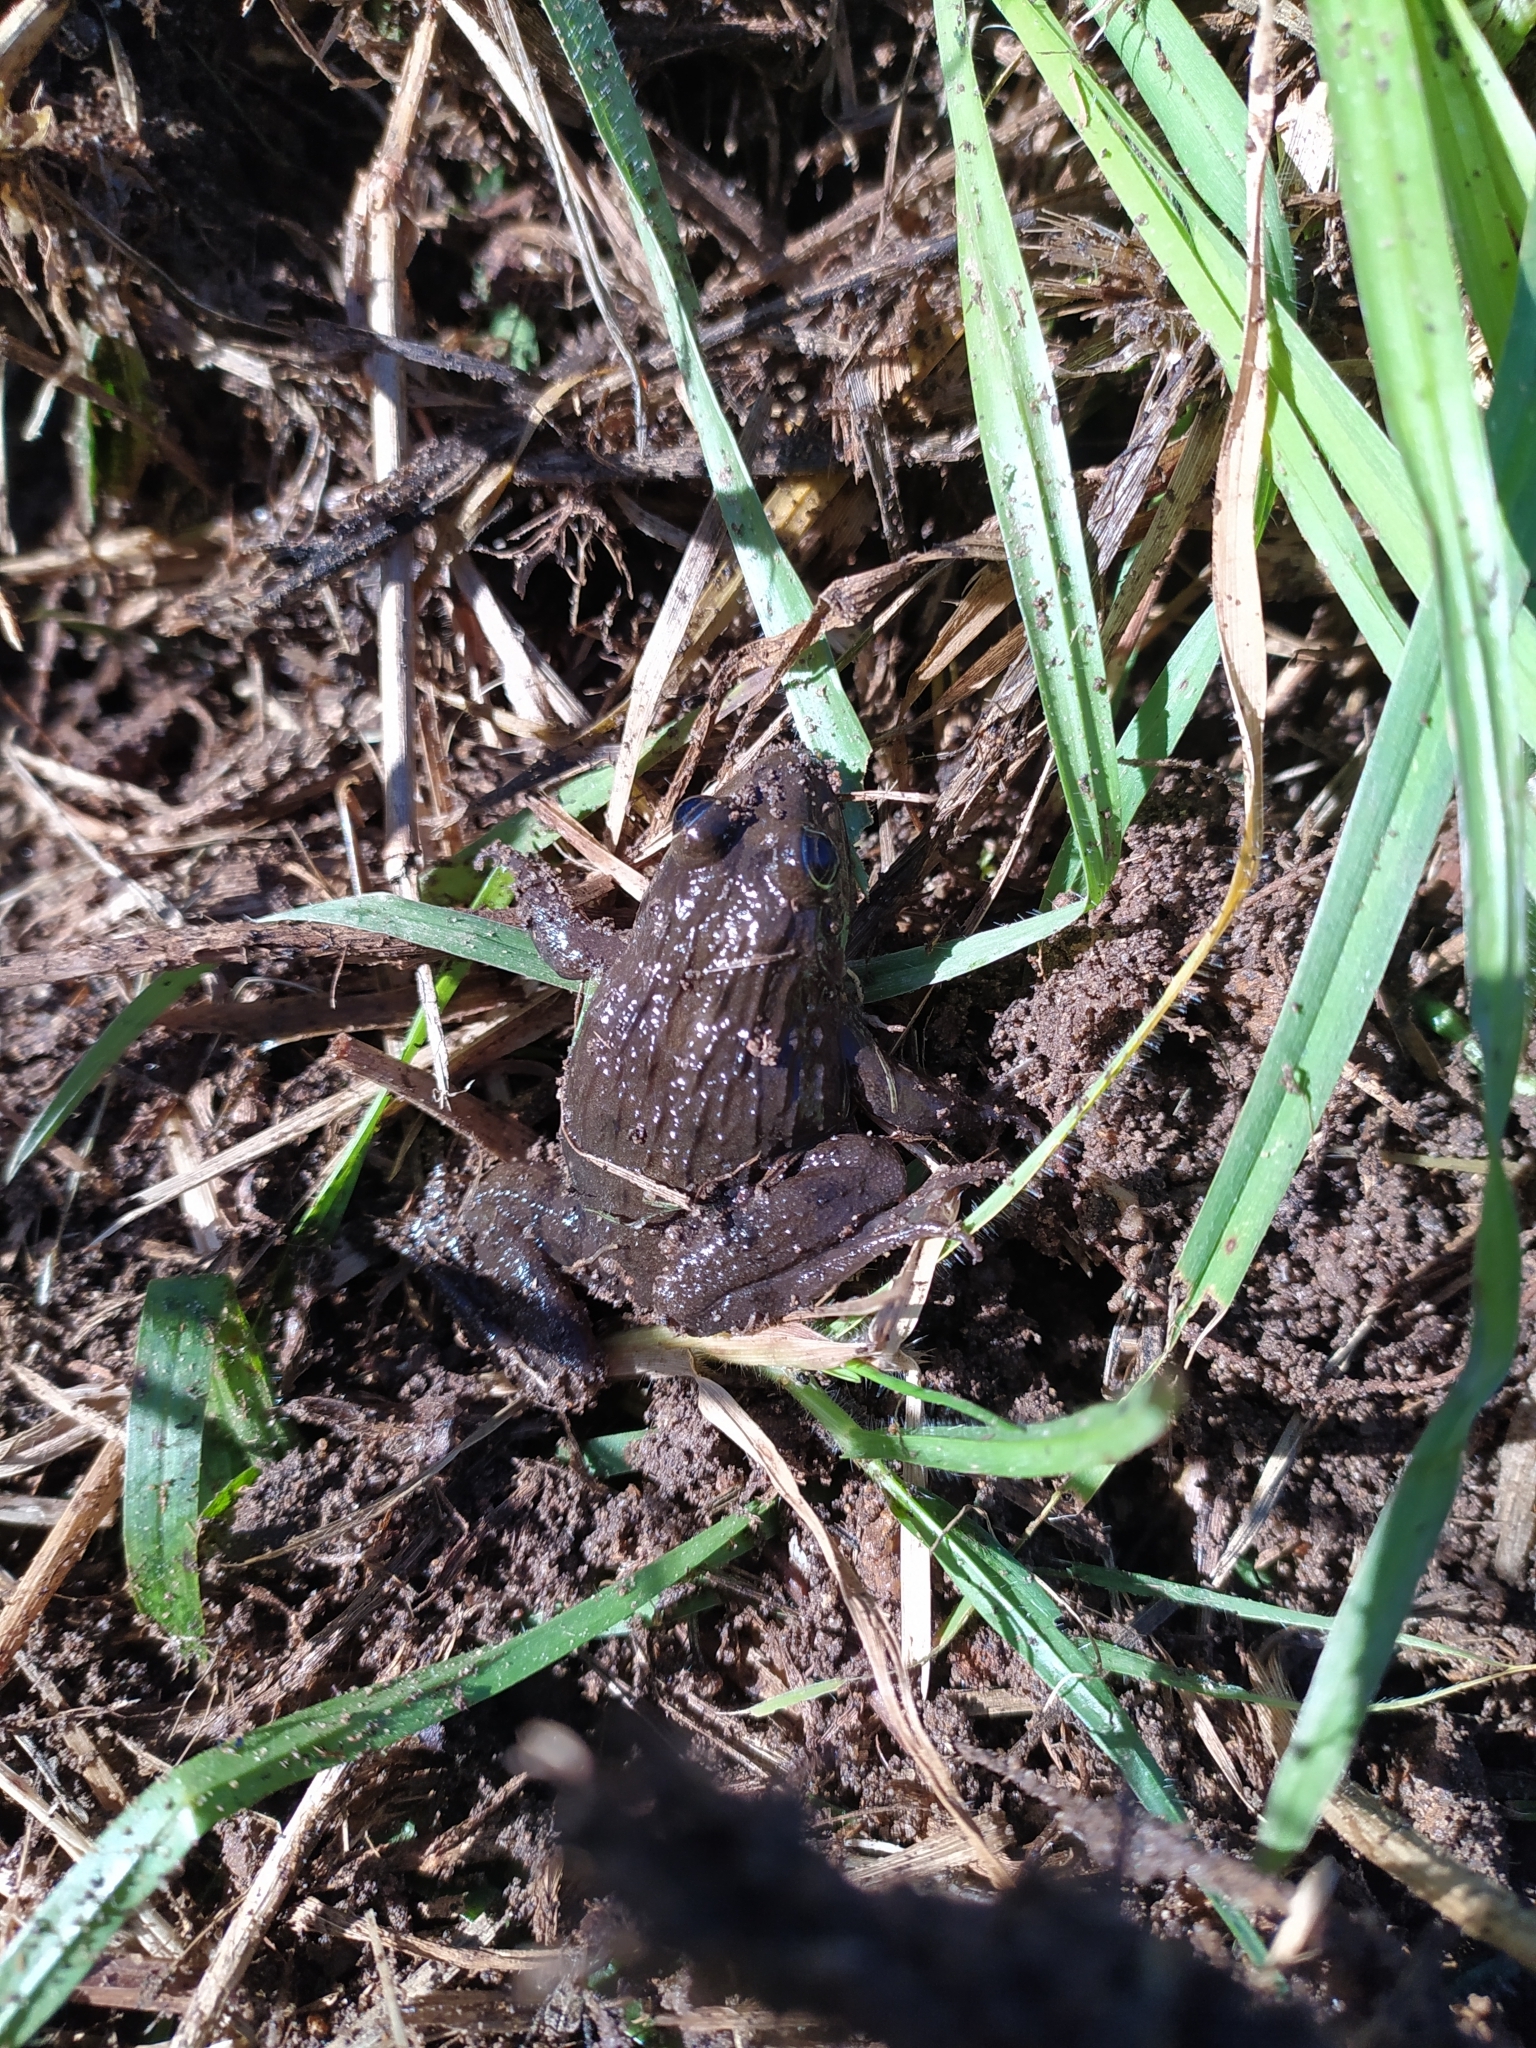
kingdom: Animalia
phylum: Chordata
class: Amphibia
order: Anura
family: Pyxicephalidae
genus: Amietia
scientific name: Amietia fuscigula
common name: Cape rana
